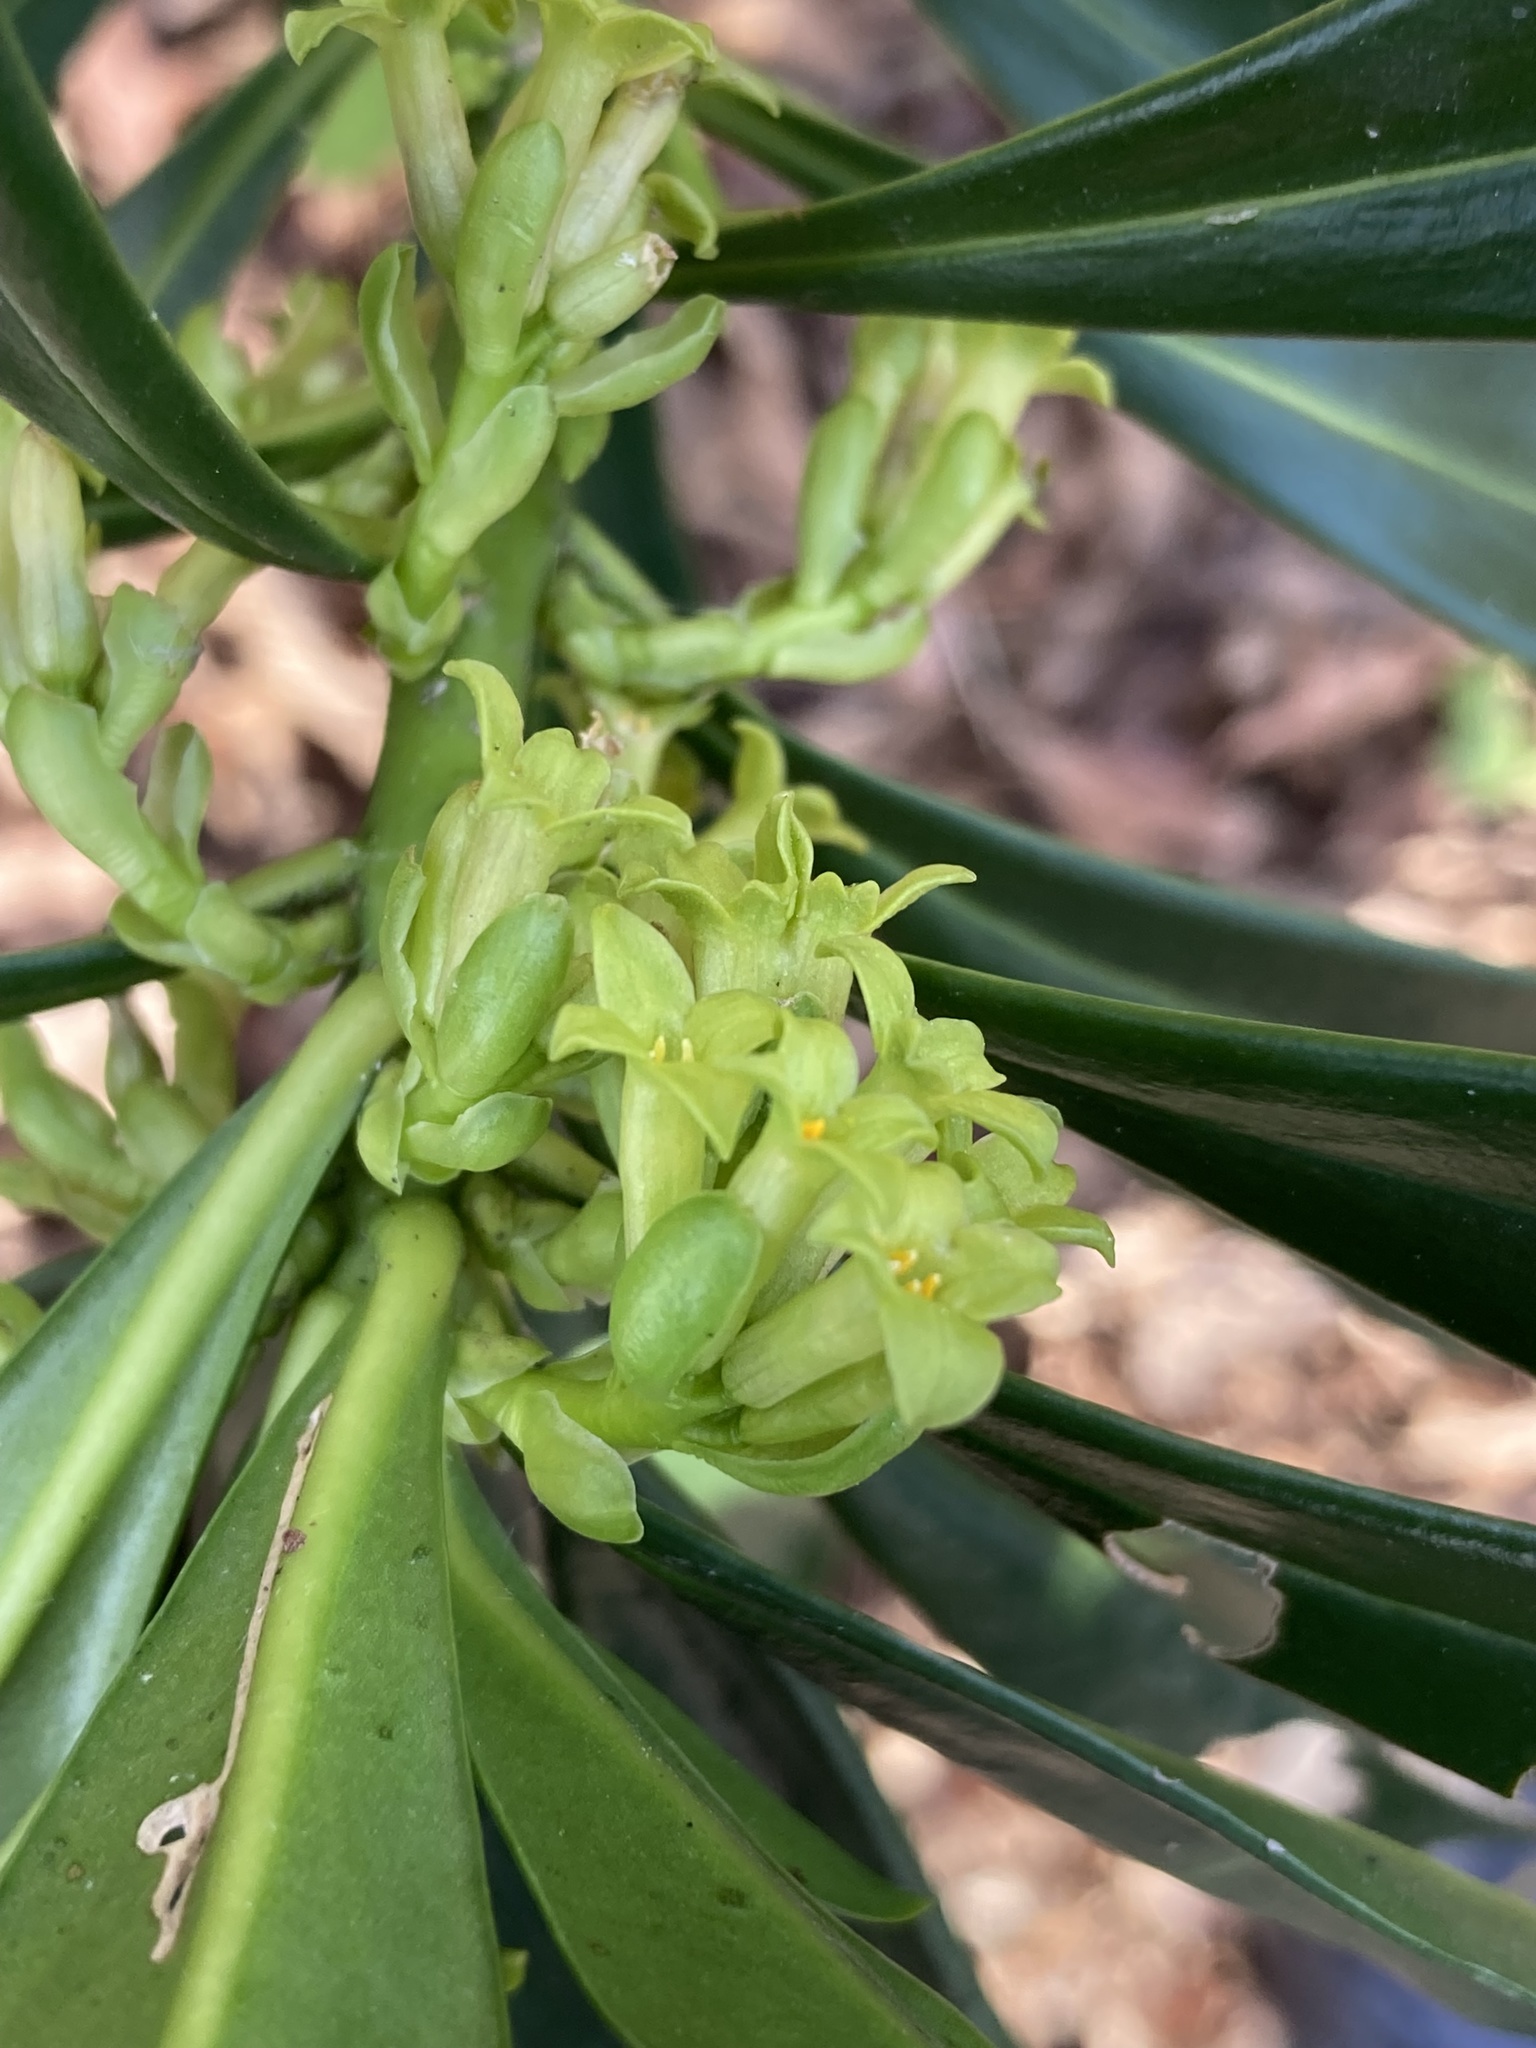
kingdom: Plantae
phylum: Tracheophyta
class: Magnoliopsida
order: Malvales
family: Thymelaeaceae
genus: Daphne
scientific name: Daphne laureola
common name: Spurge-laurel
